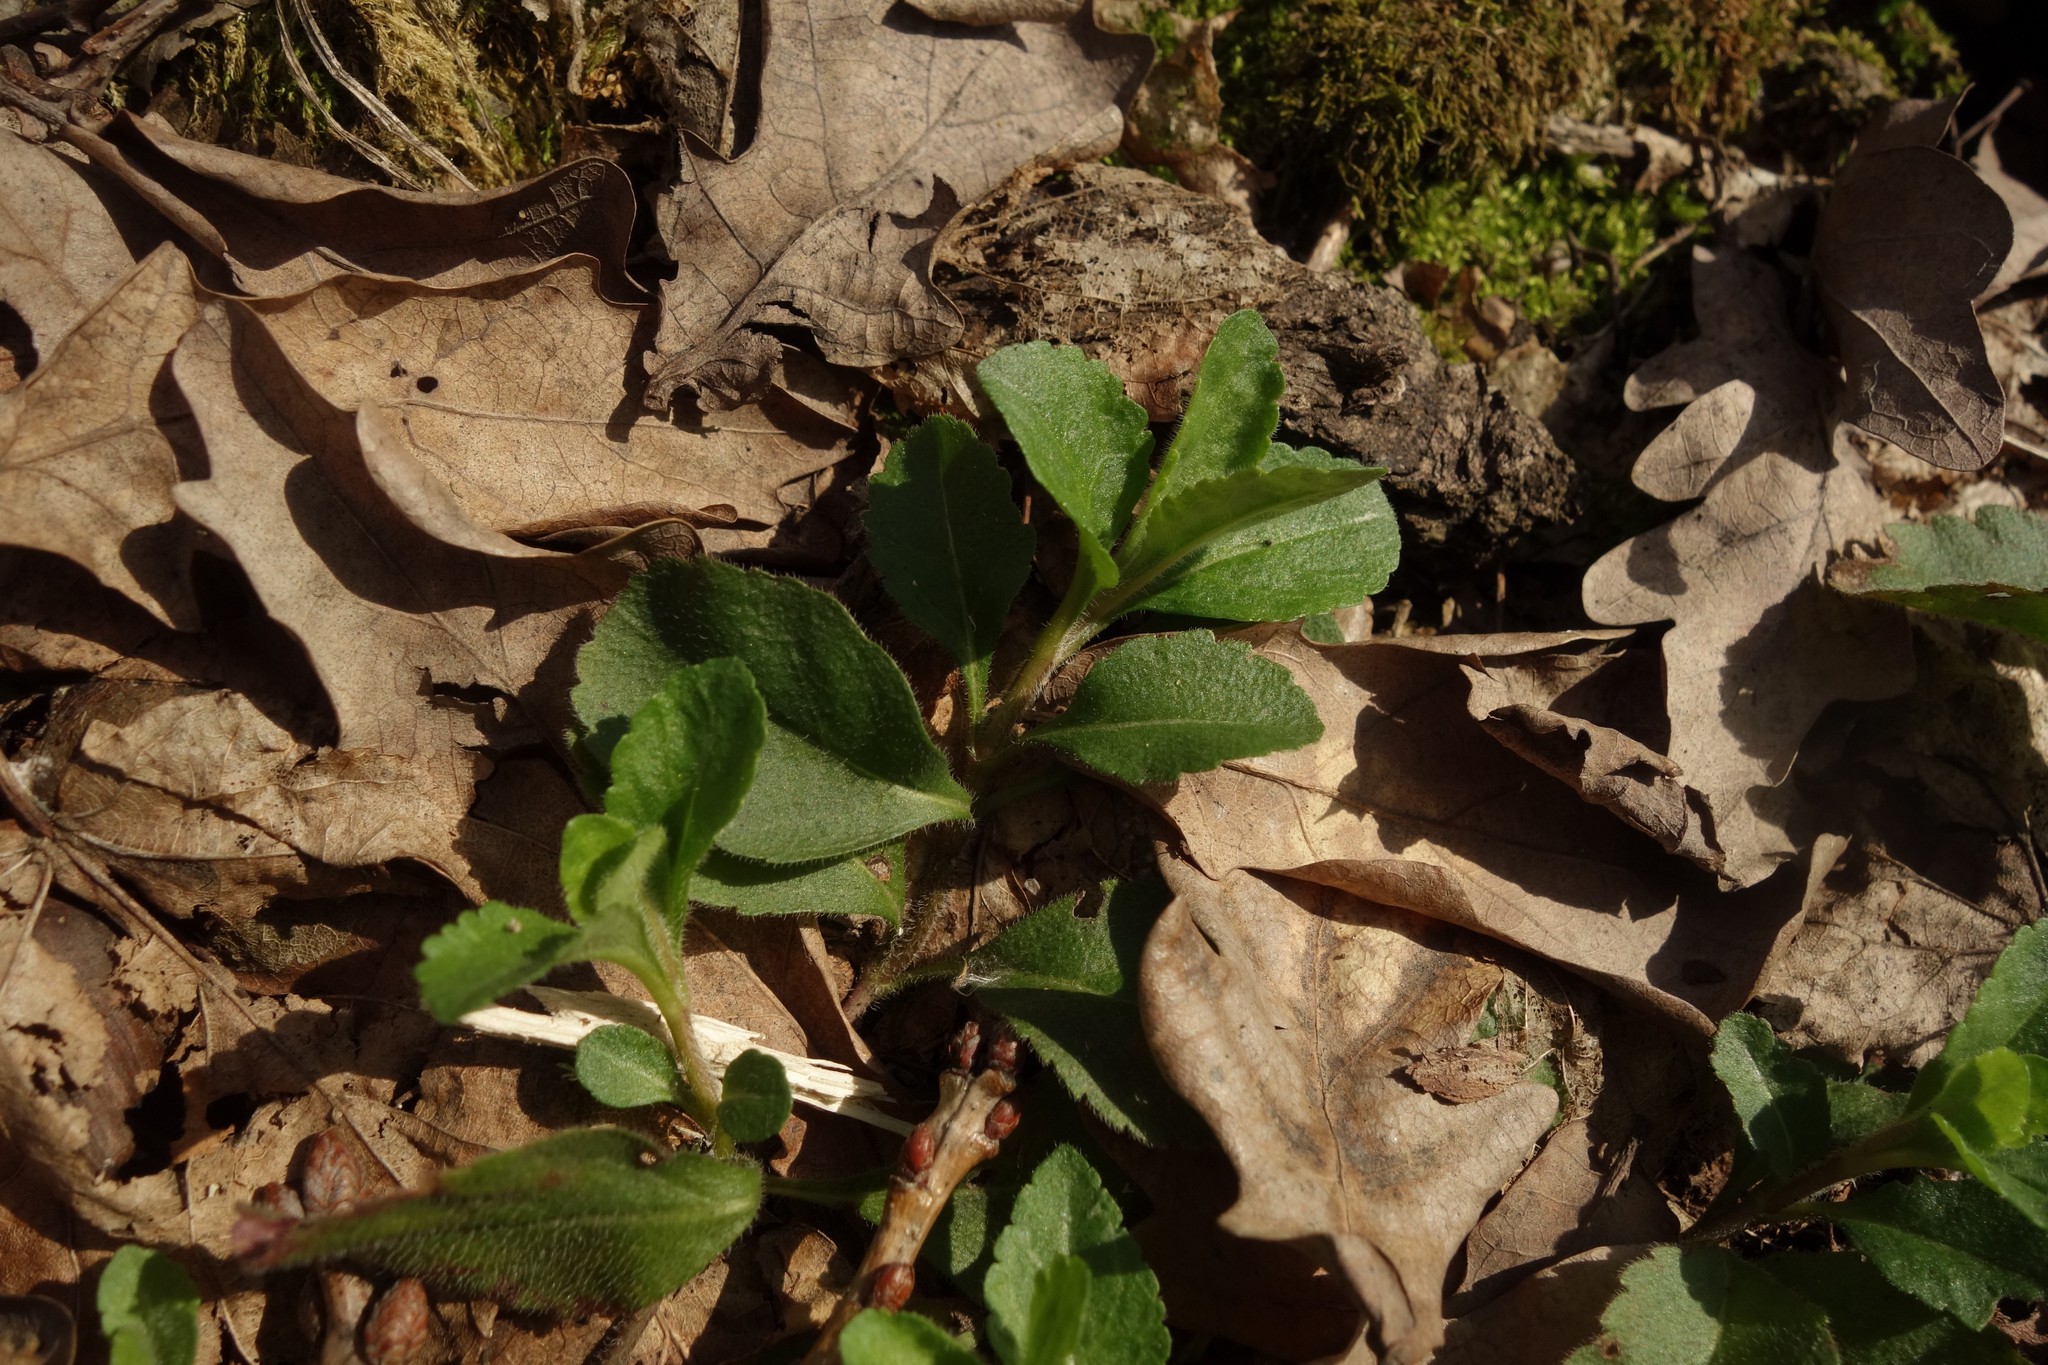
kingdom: Plantae
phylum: Tracheophyta
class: Magnoliopsida
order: Lamiales
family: Plantaginaceae
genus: Veronica
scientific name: Veronica officinalis
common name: Common speedwell
